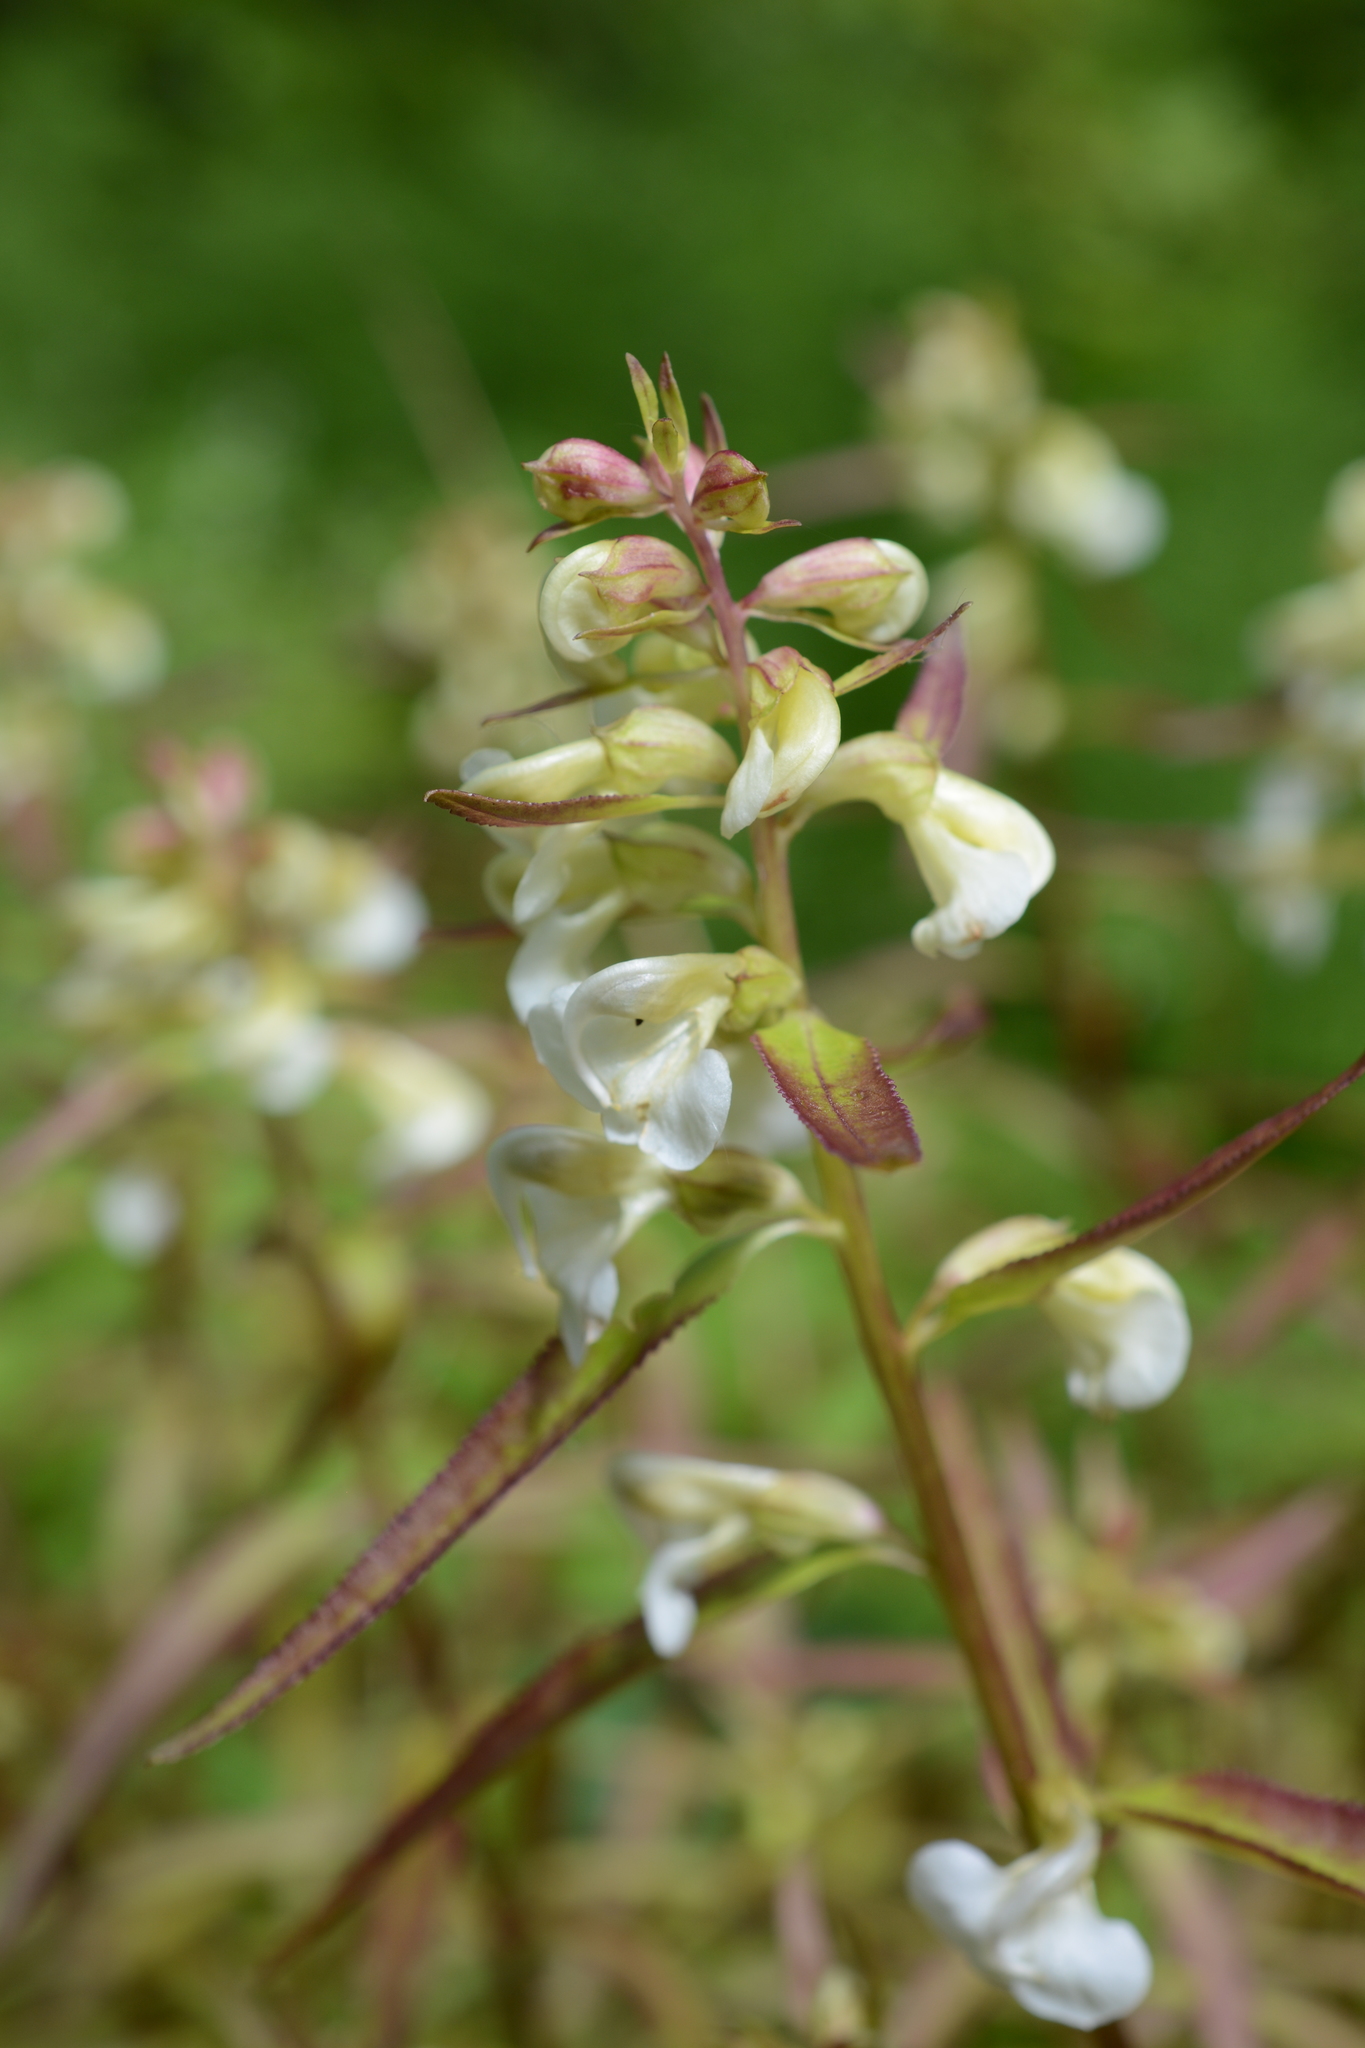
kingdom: Plantae
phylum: Tracheophyta
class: Magnoliopsida
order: Lamiales
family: Orobanchaceae
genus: Pedicularis
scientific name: Pedicularis racemosa
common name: Leafy lousewort
